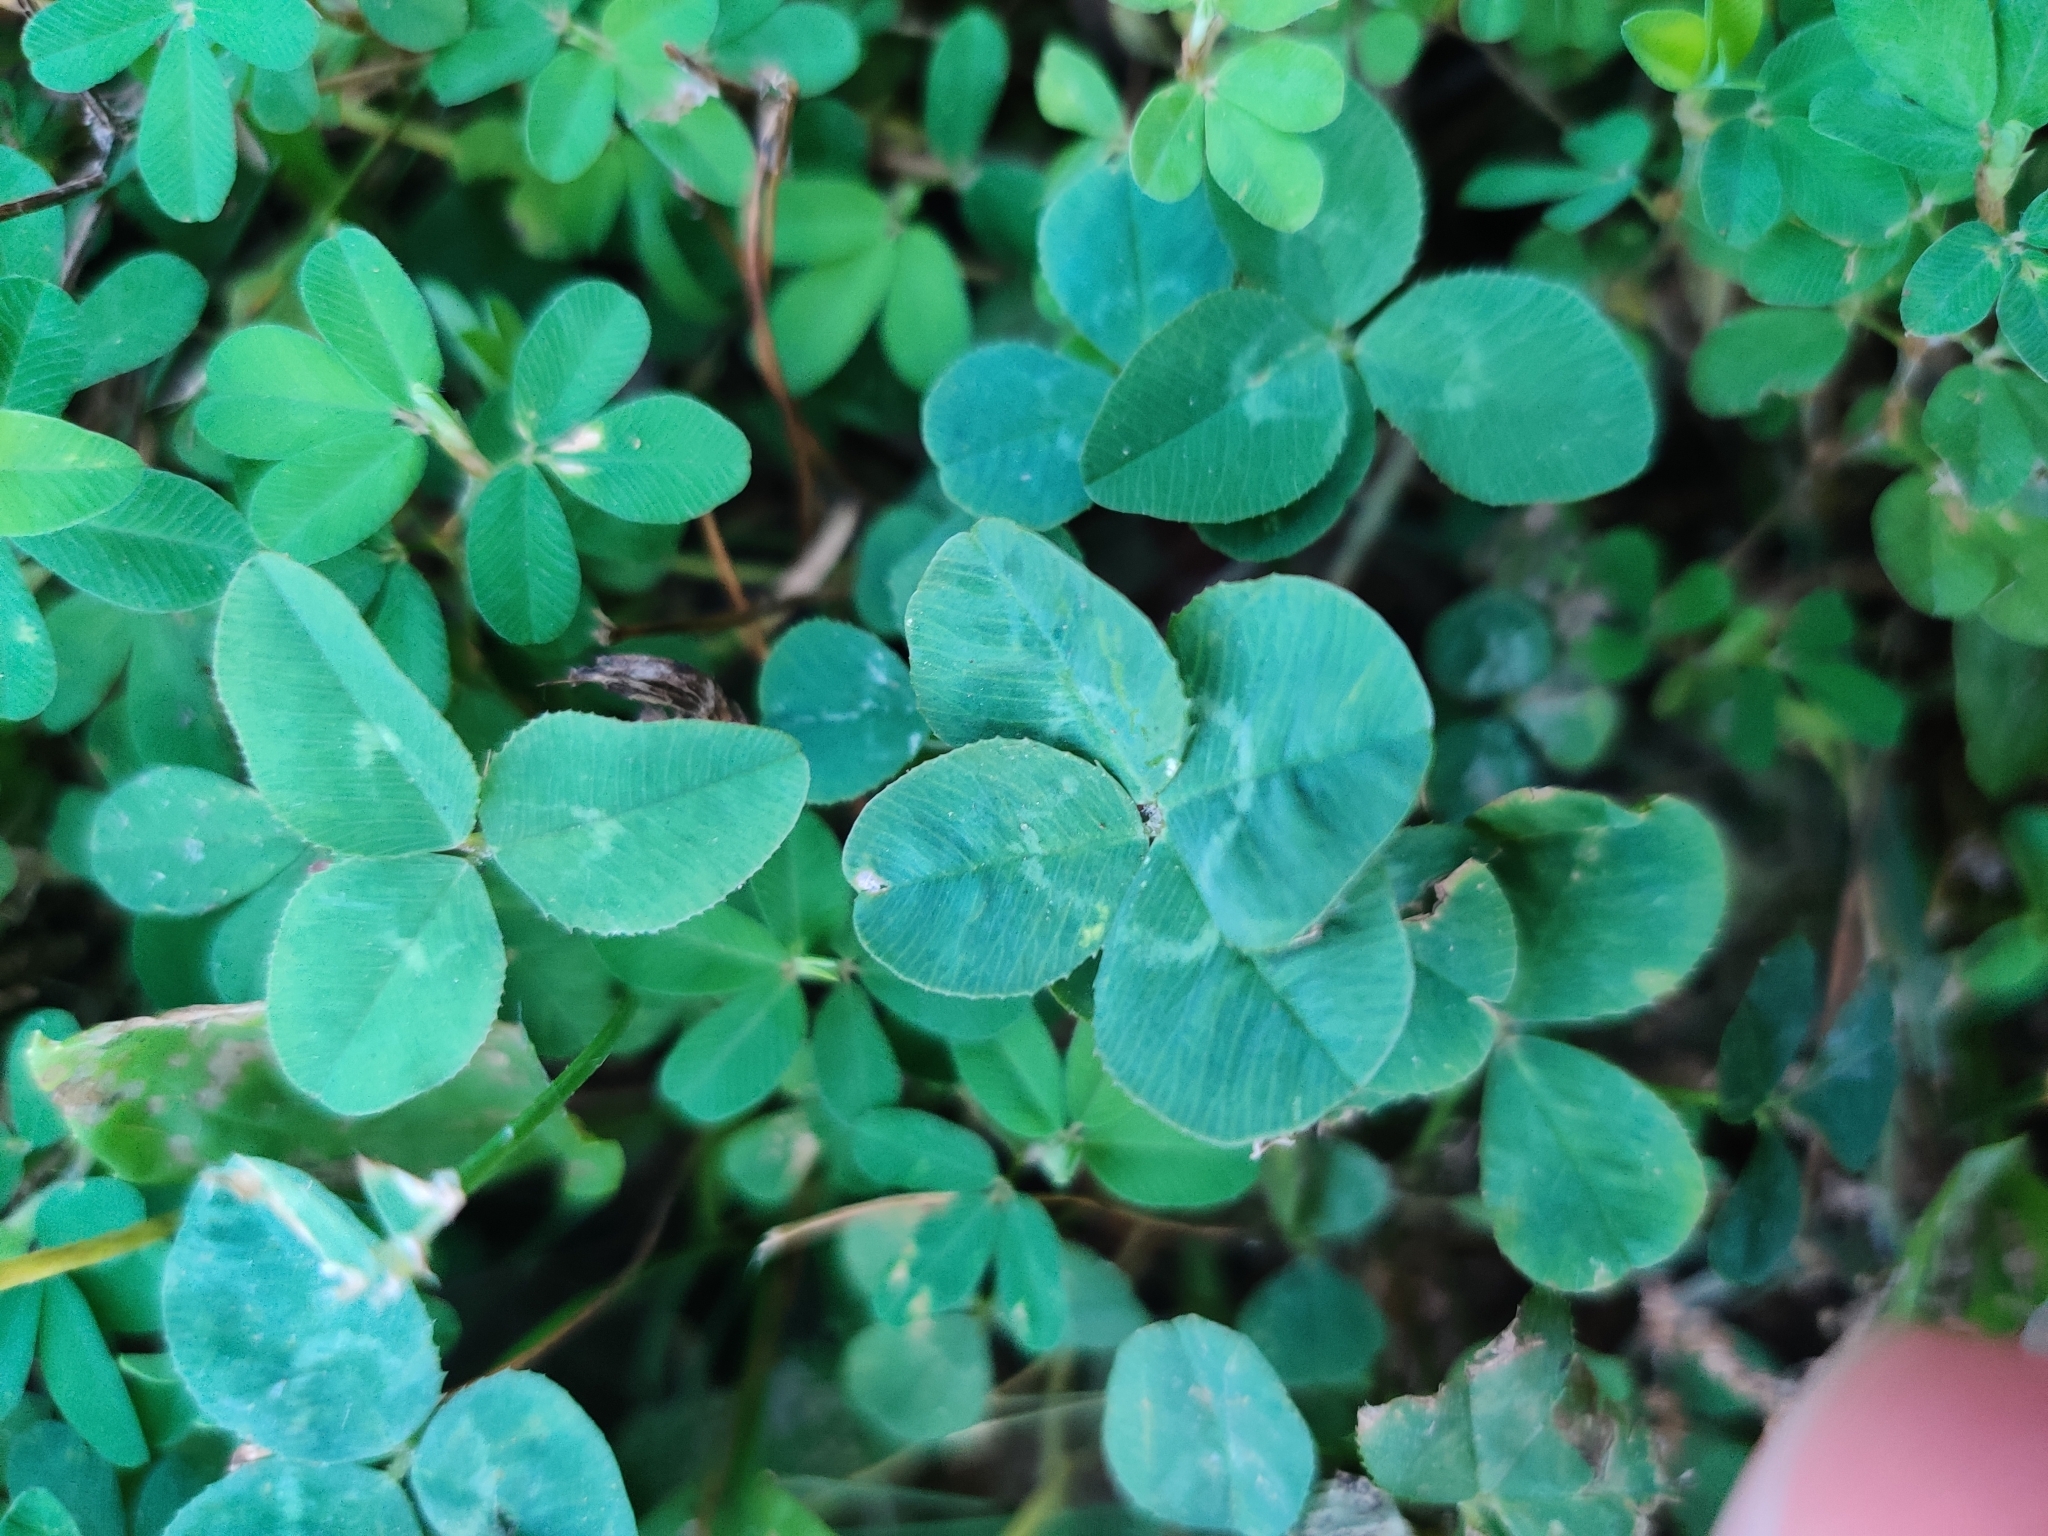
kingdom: Plantae
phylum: Tracheophyta
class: Magnoliopsida
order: Fabales
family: Fabaceae
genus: Trifolium
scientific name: Trifolium repens
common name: White clover
